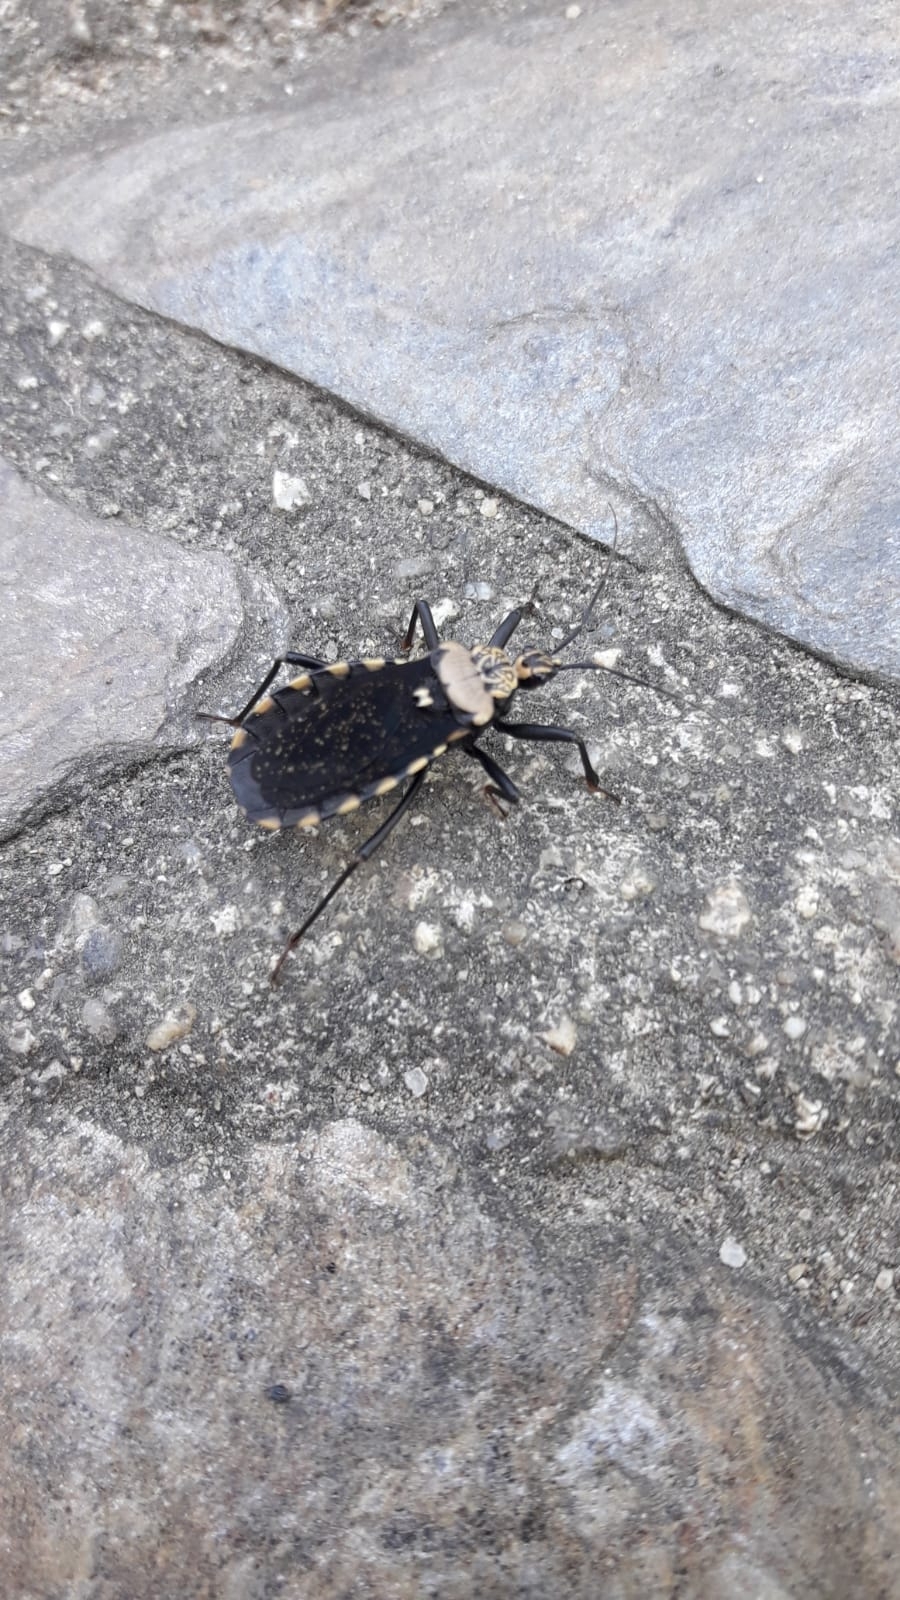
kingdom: Animalia
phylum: Arthropoda
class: Insecta
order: Hemiptera
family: Reduviidae
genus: Rhiginia
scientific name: Rhiginia conspersa
